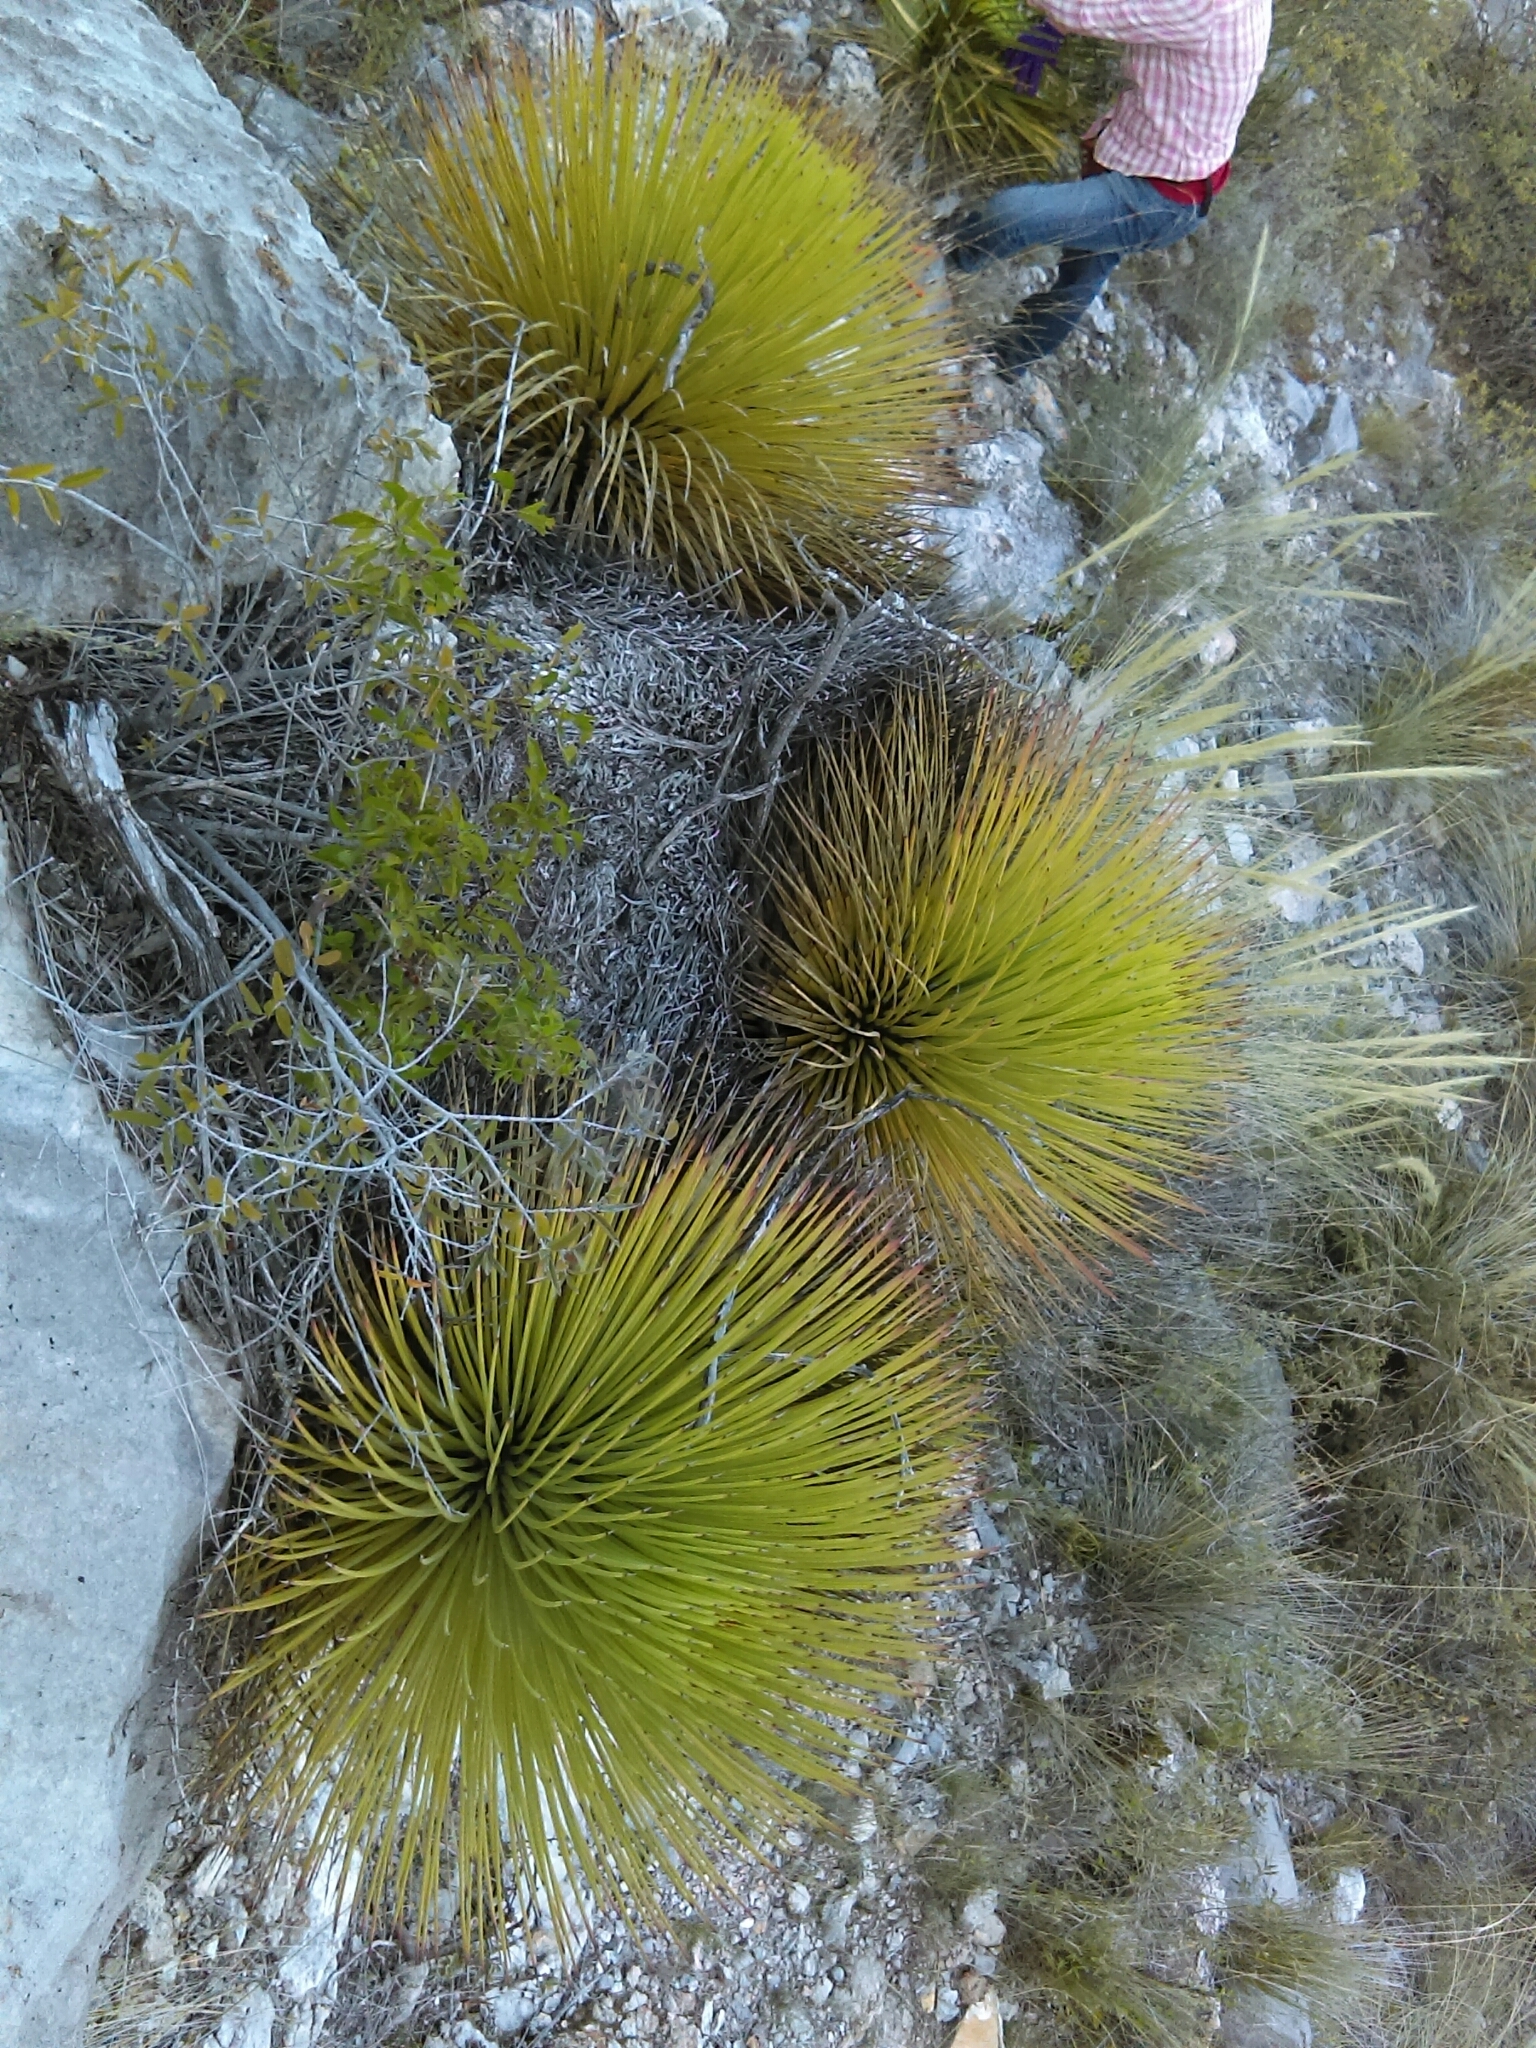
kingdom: Plantae
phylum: Tracheophyta
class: Liliopsida
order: Asparagales
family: Asparagaceae
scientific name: Asparagaceae
